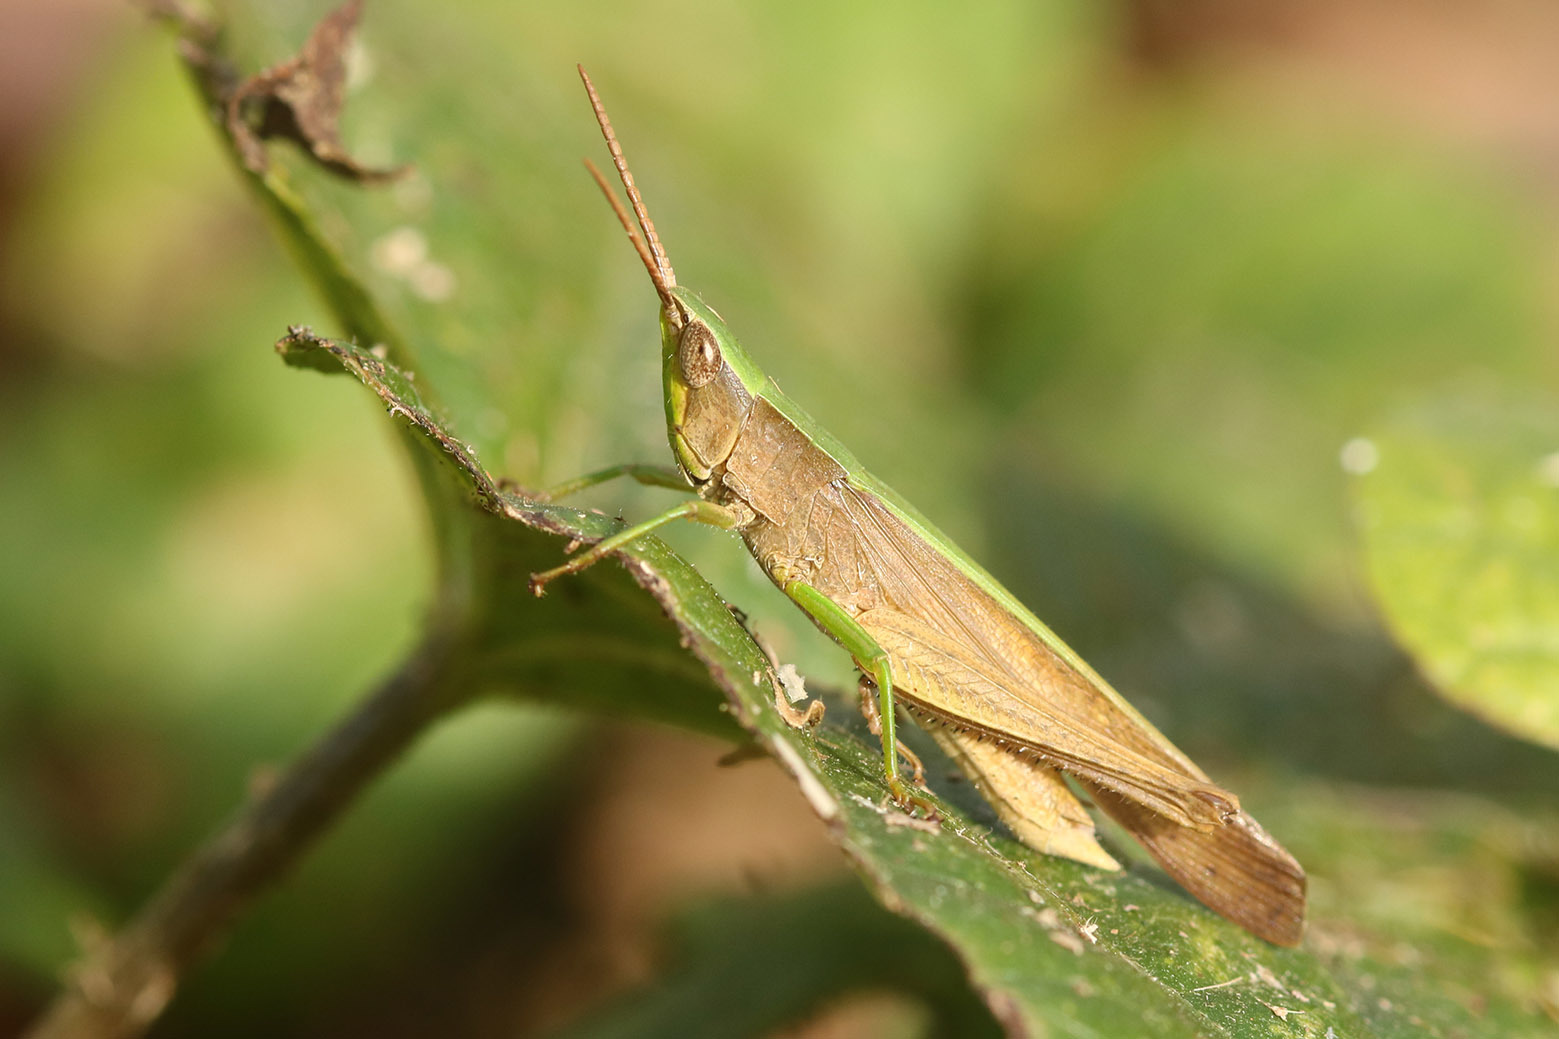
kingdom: Animalia
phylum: Arthropoda
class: Insecta
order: Orthoptera
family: Acrididae
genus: Metaleptea
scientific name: Metaleptea adspersa
